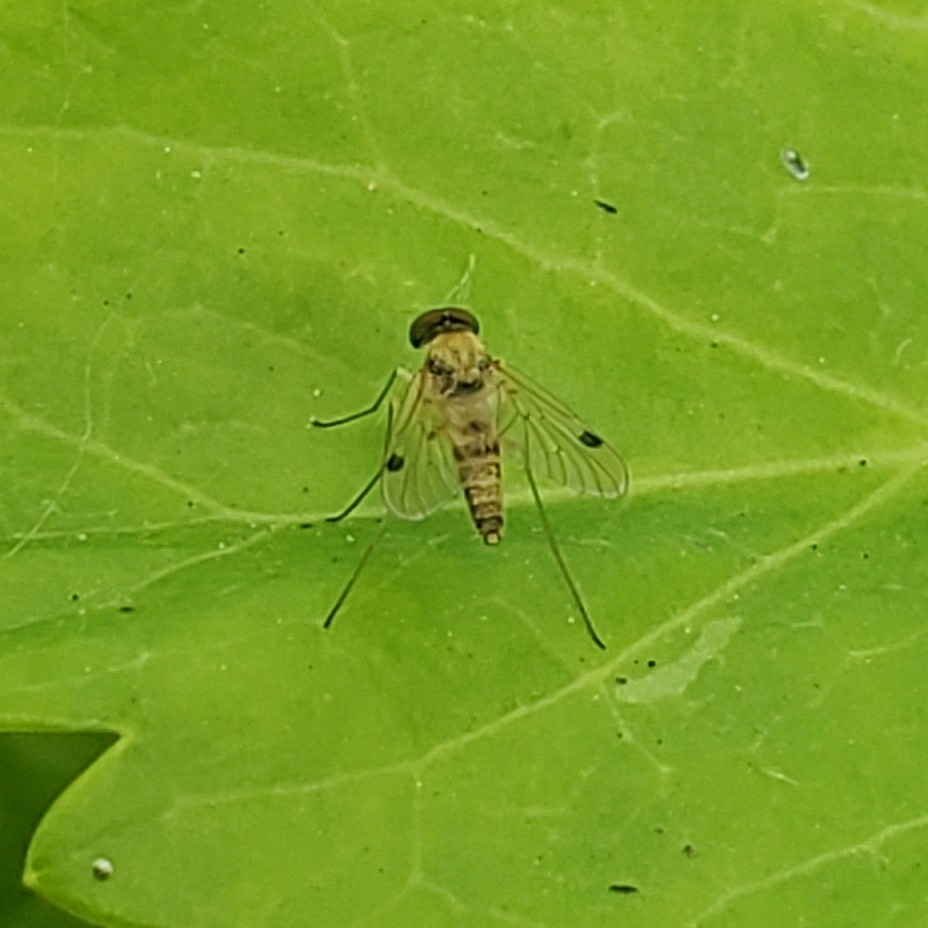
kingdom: Animalia
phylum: Arthropoda
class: Insecta
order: Diptera
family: Rhagionidae
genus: Chrysopilus
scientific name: Chrysopilus modestus
